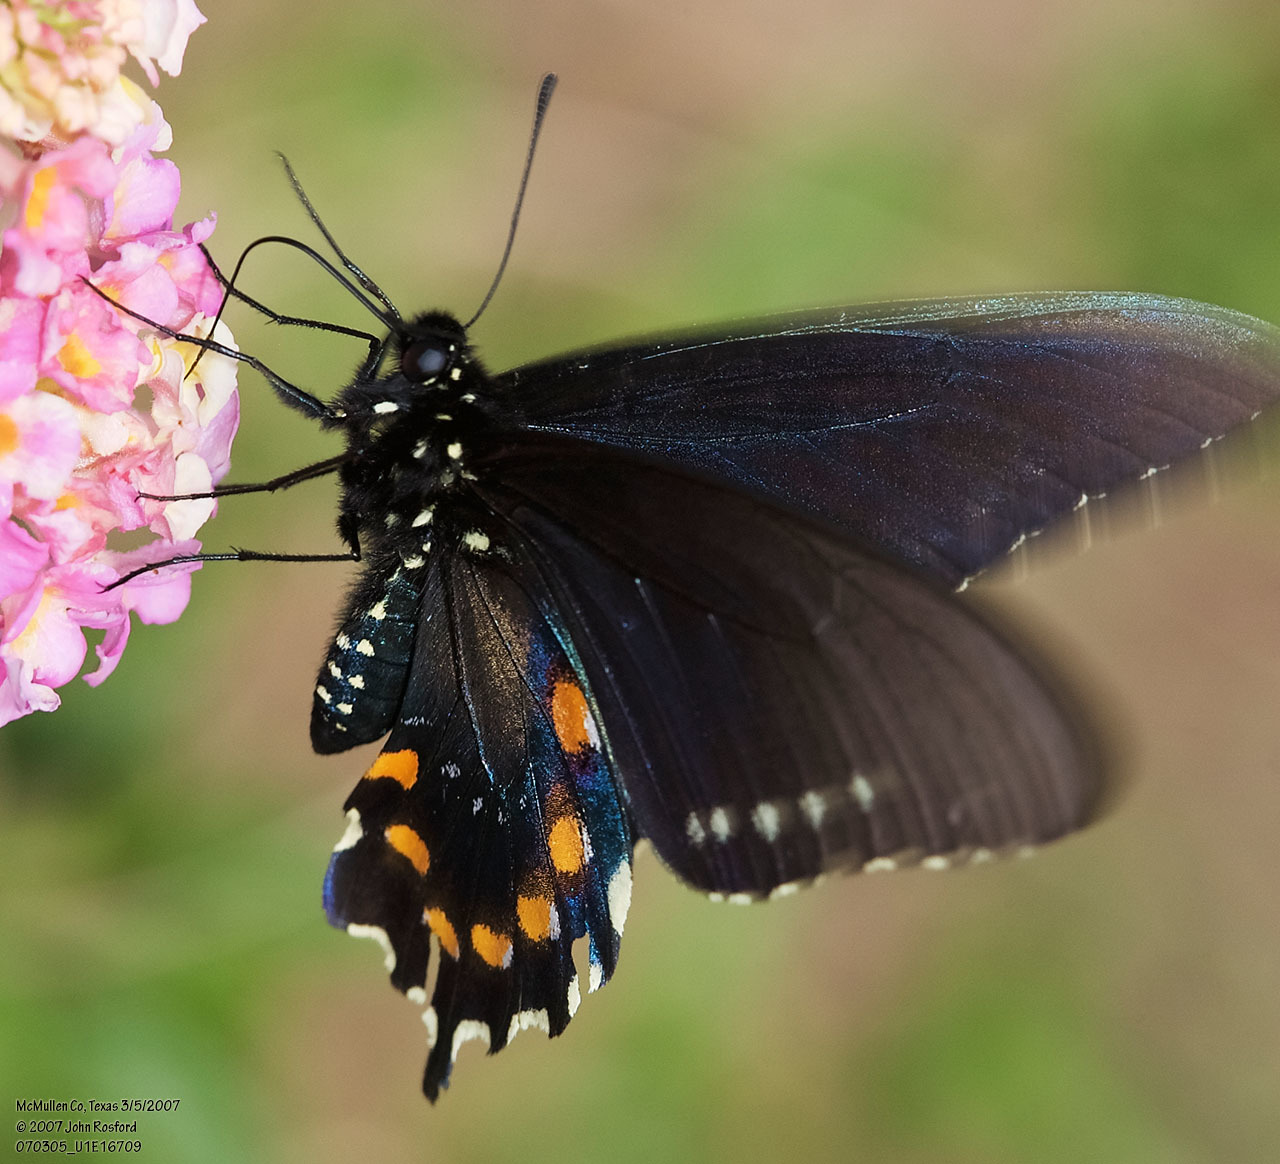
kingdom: Animalia
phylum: Arthropoda
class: Insecta
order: Lepidoptera
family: Papilionidae
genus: Battus
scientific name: Battus philenor
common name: Pipevine swallowtail
